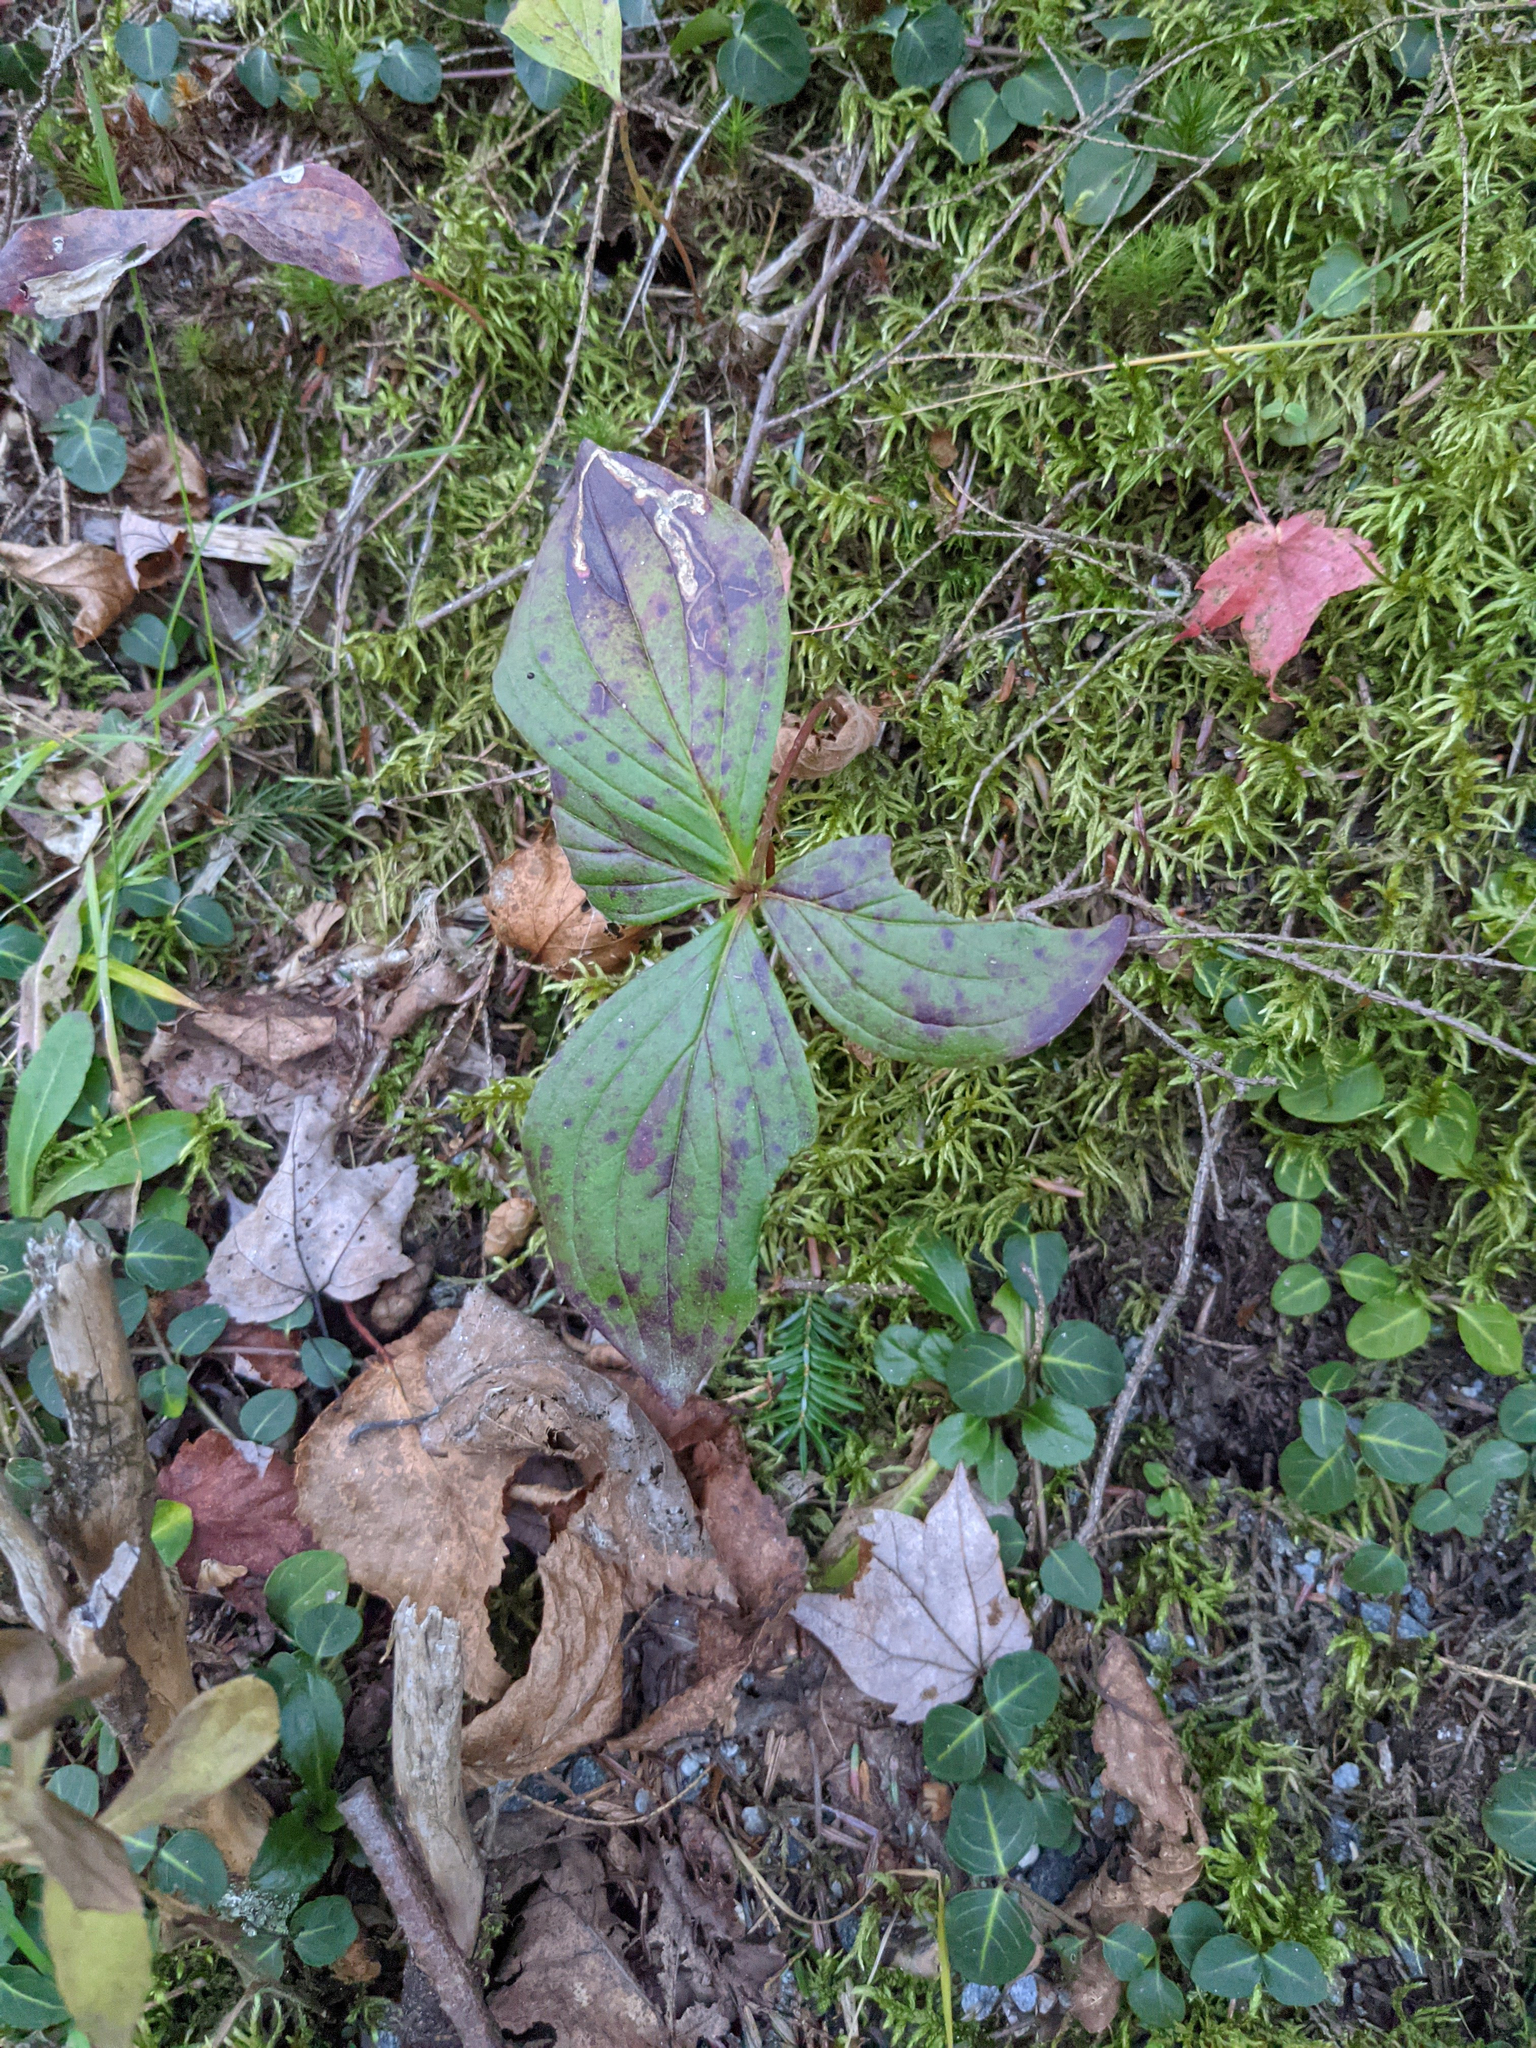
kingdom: Plantae
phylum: Tracheophyta
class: Magnoliopsida
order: Cornales
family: Cornaceae
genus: Cornus
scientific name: Cornus canadensis
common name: Creeping dogwood
